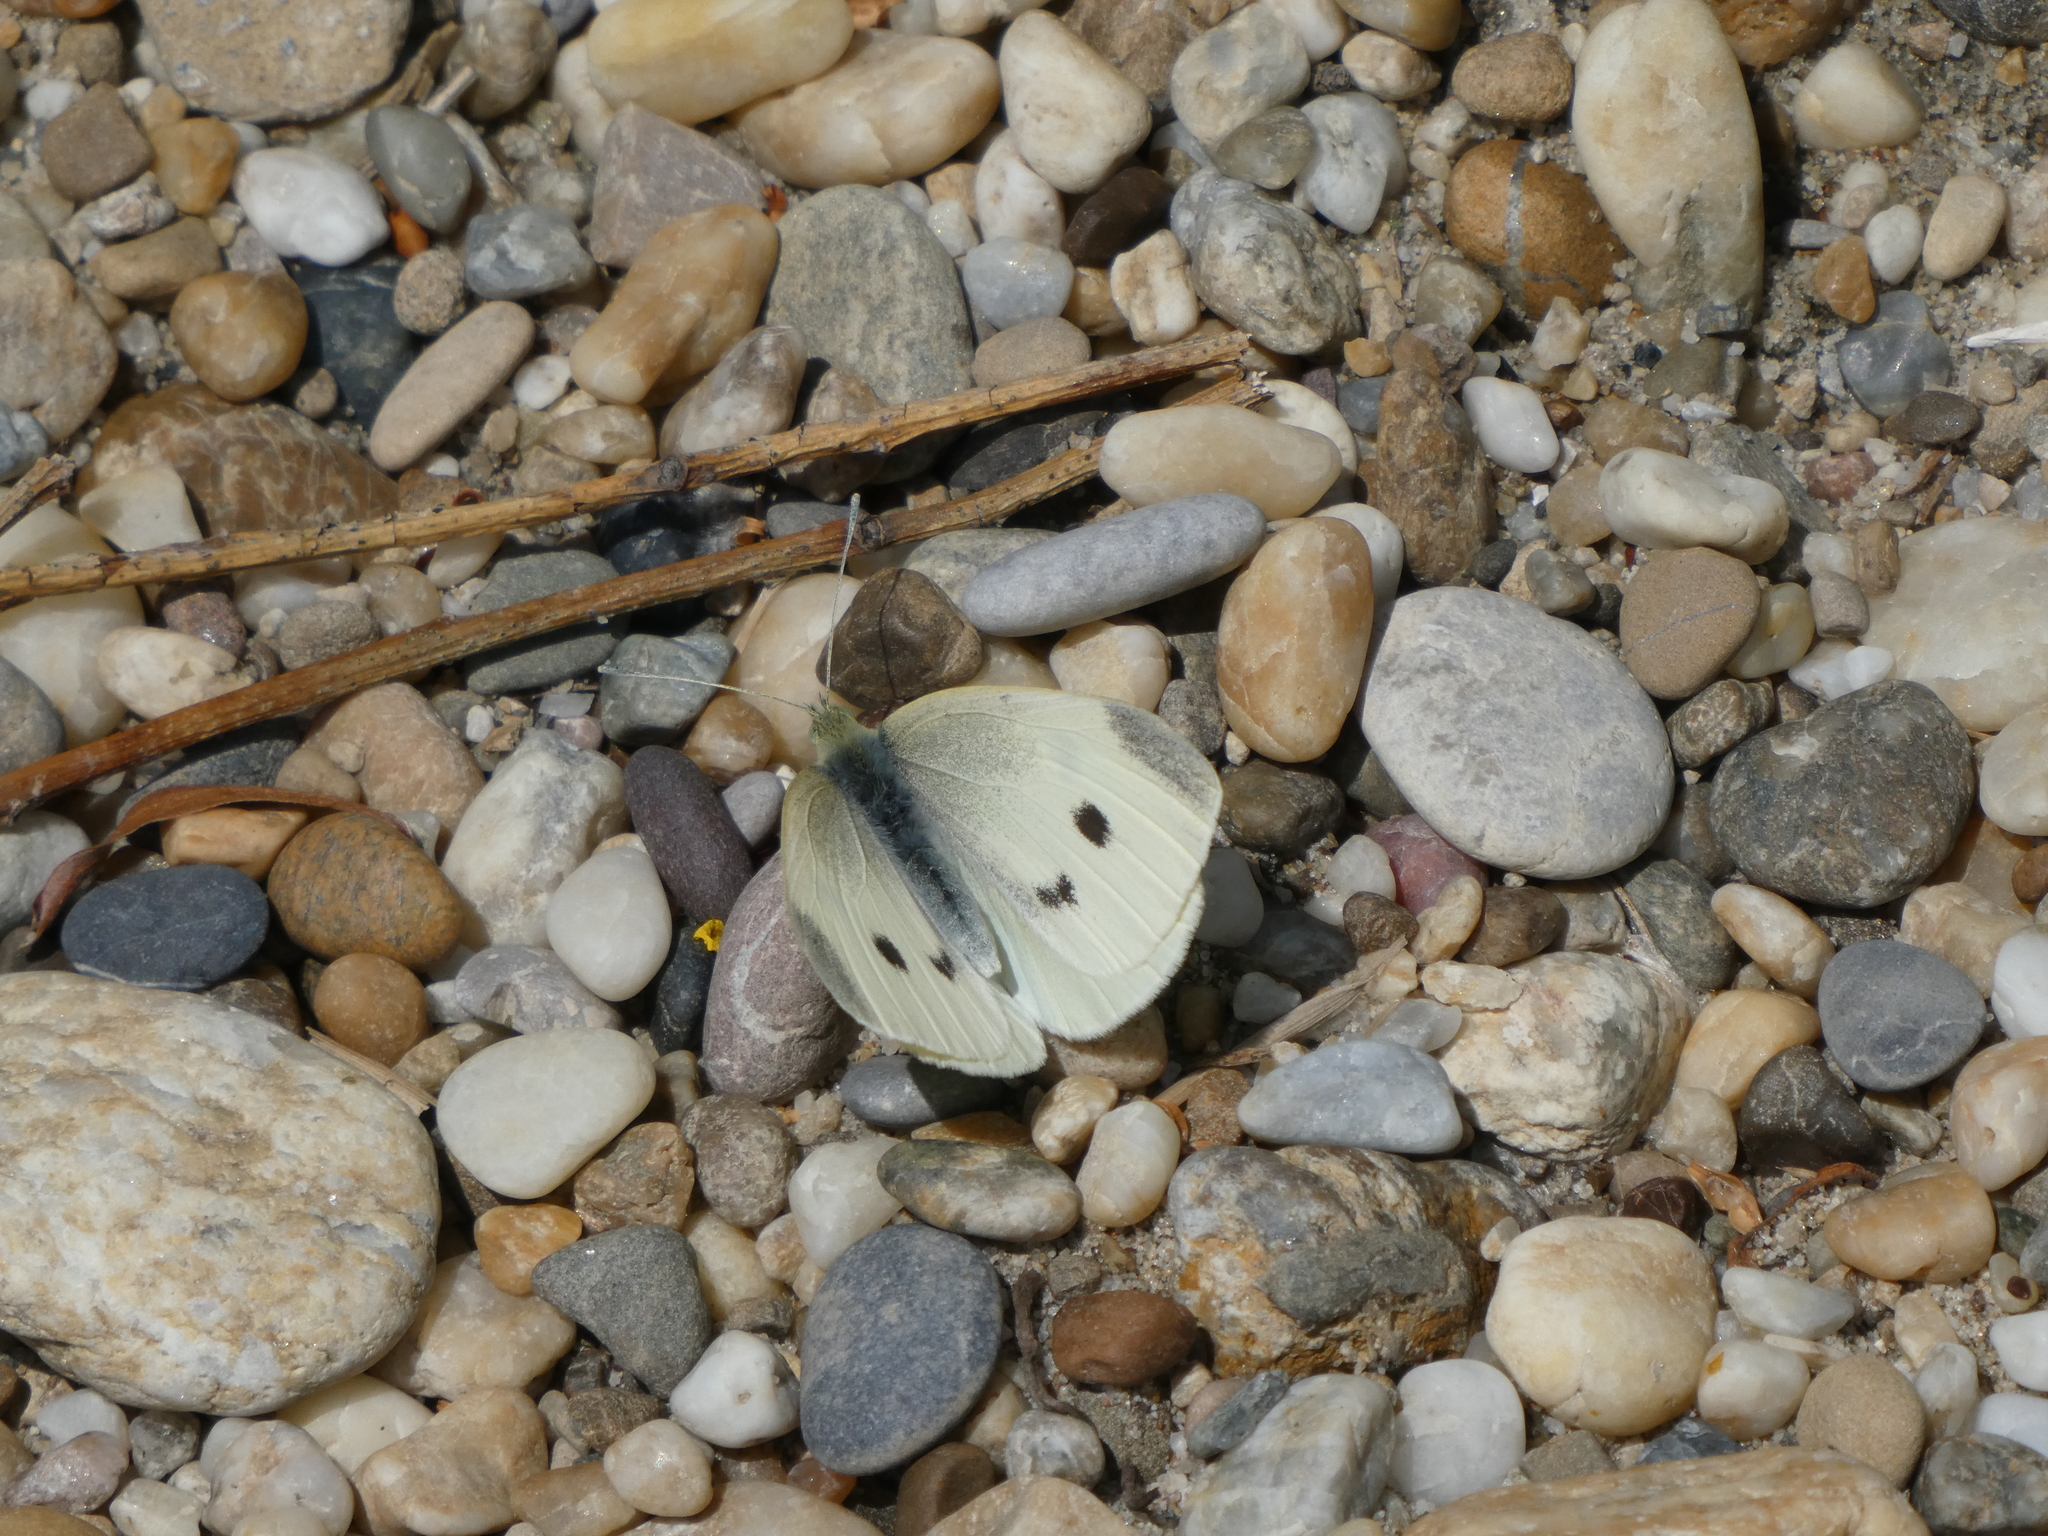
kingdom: Animalia
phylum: Arthropoda
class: Insecta
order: Lepidoptera
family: Pieridae
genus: Pieris
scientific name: Pieris rapae
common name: Small white
